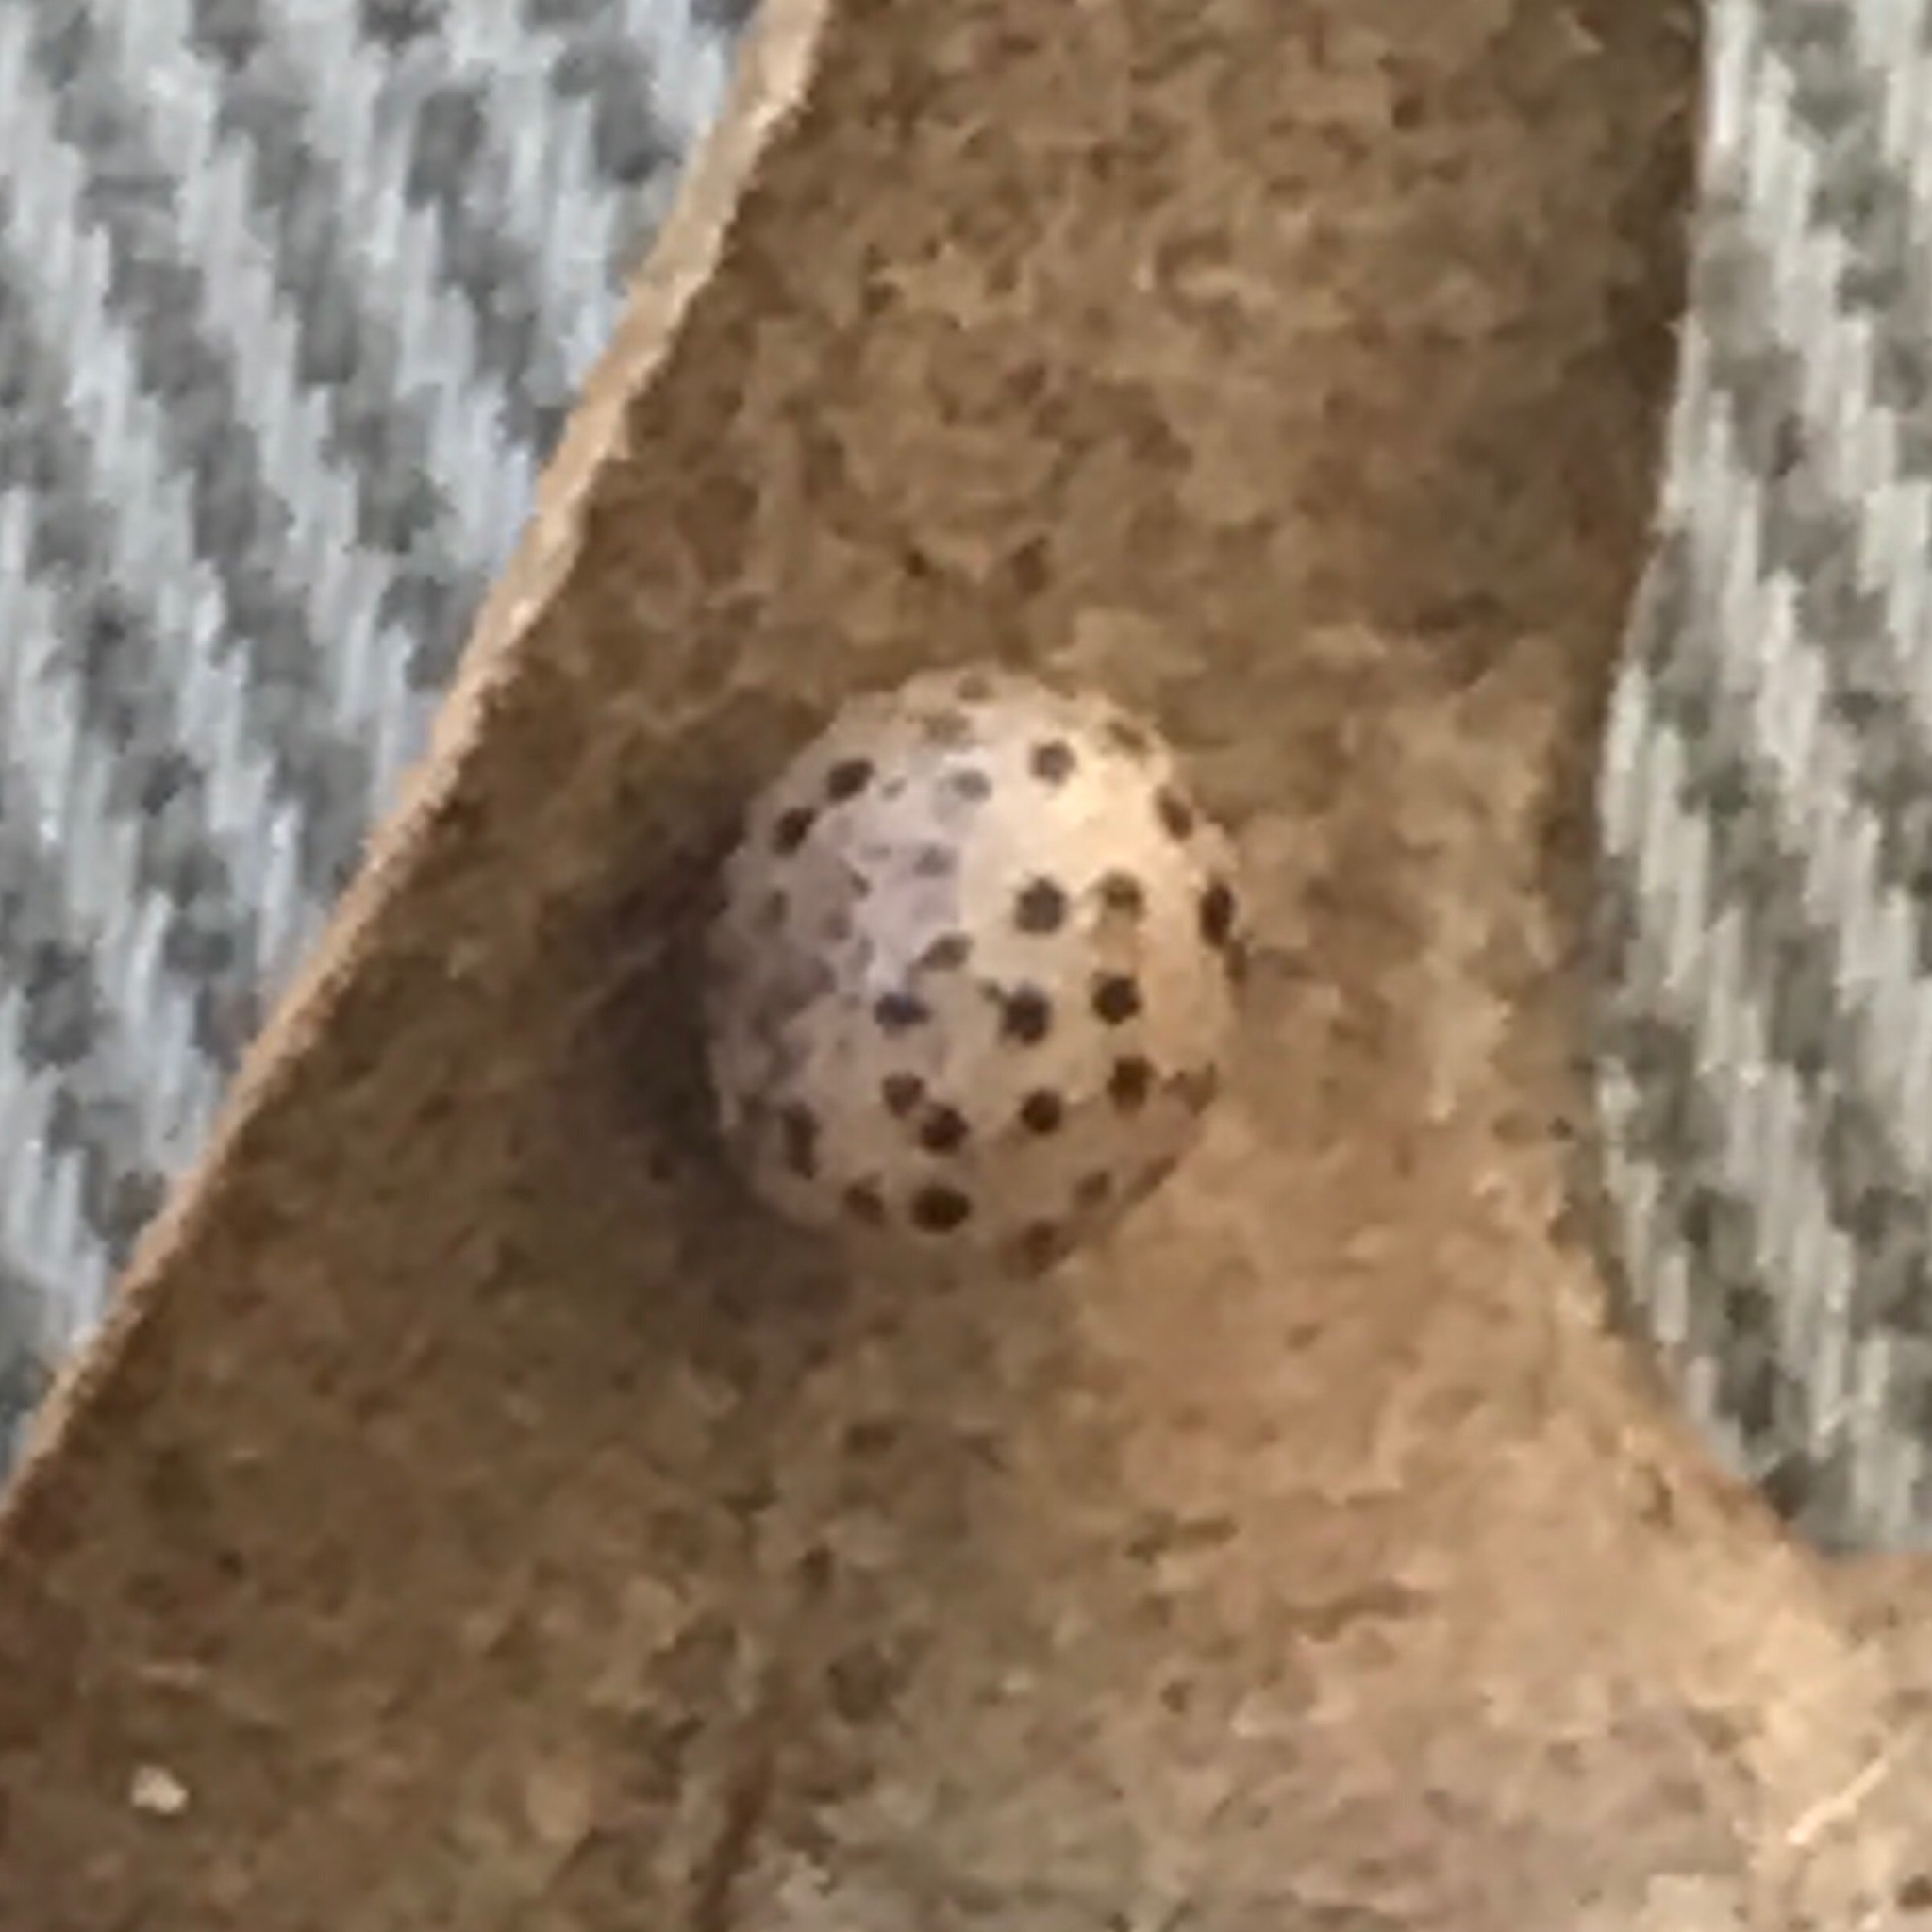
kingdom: Animalia
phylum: Arthropoda
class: Insecta
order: Hymenoptera
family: Cynipidae
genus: Zopheroteras
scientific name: Zopheroteras
